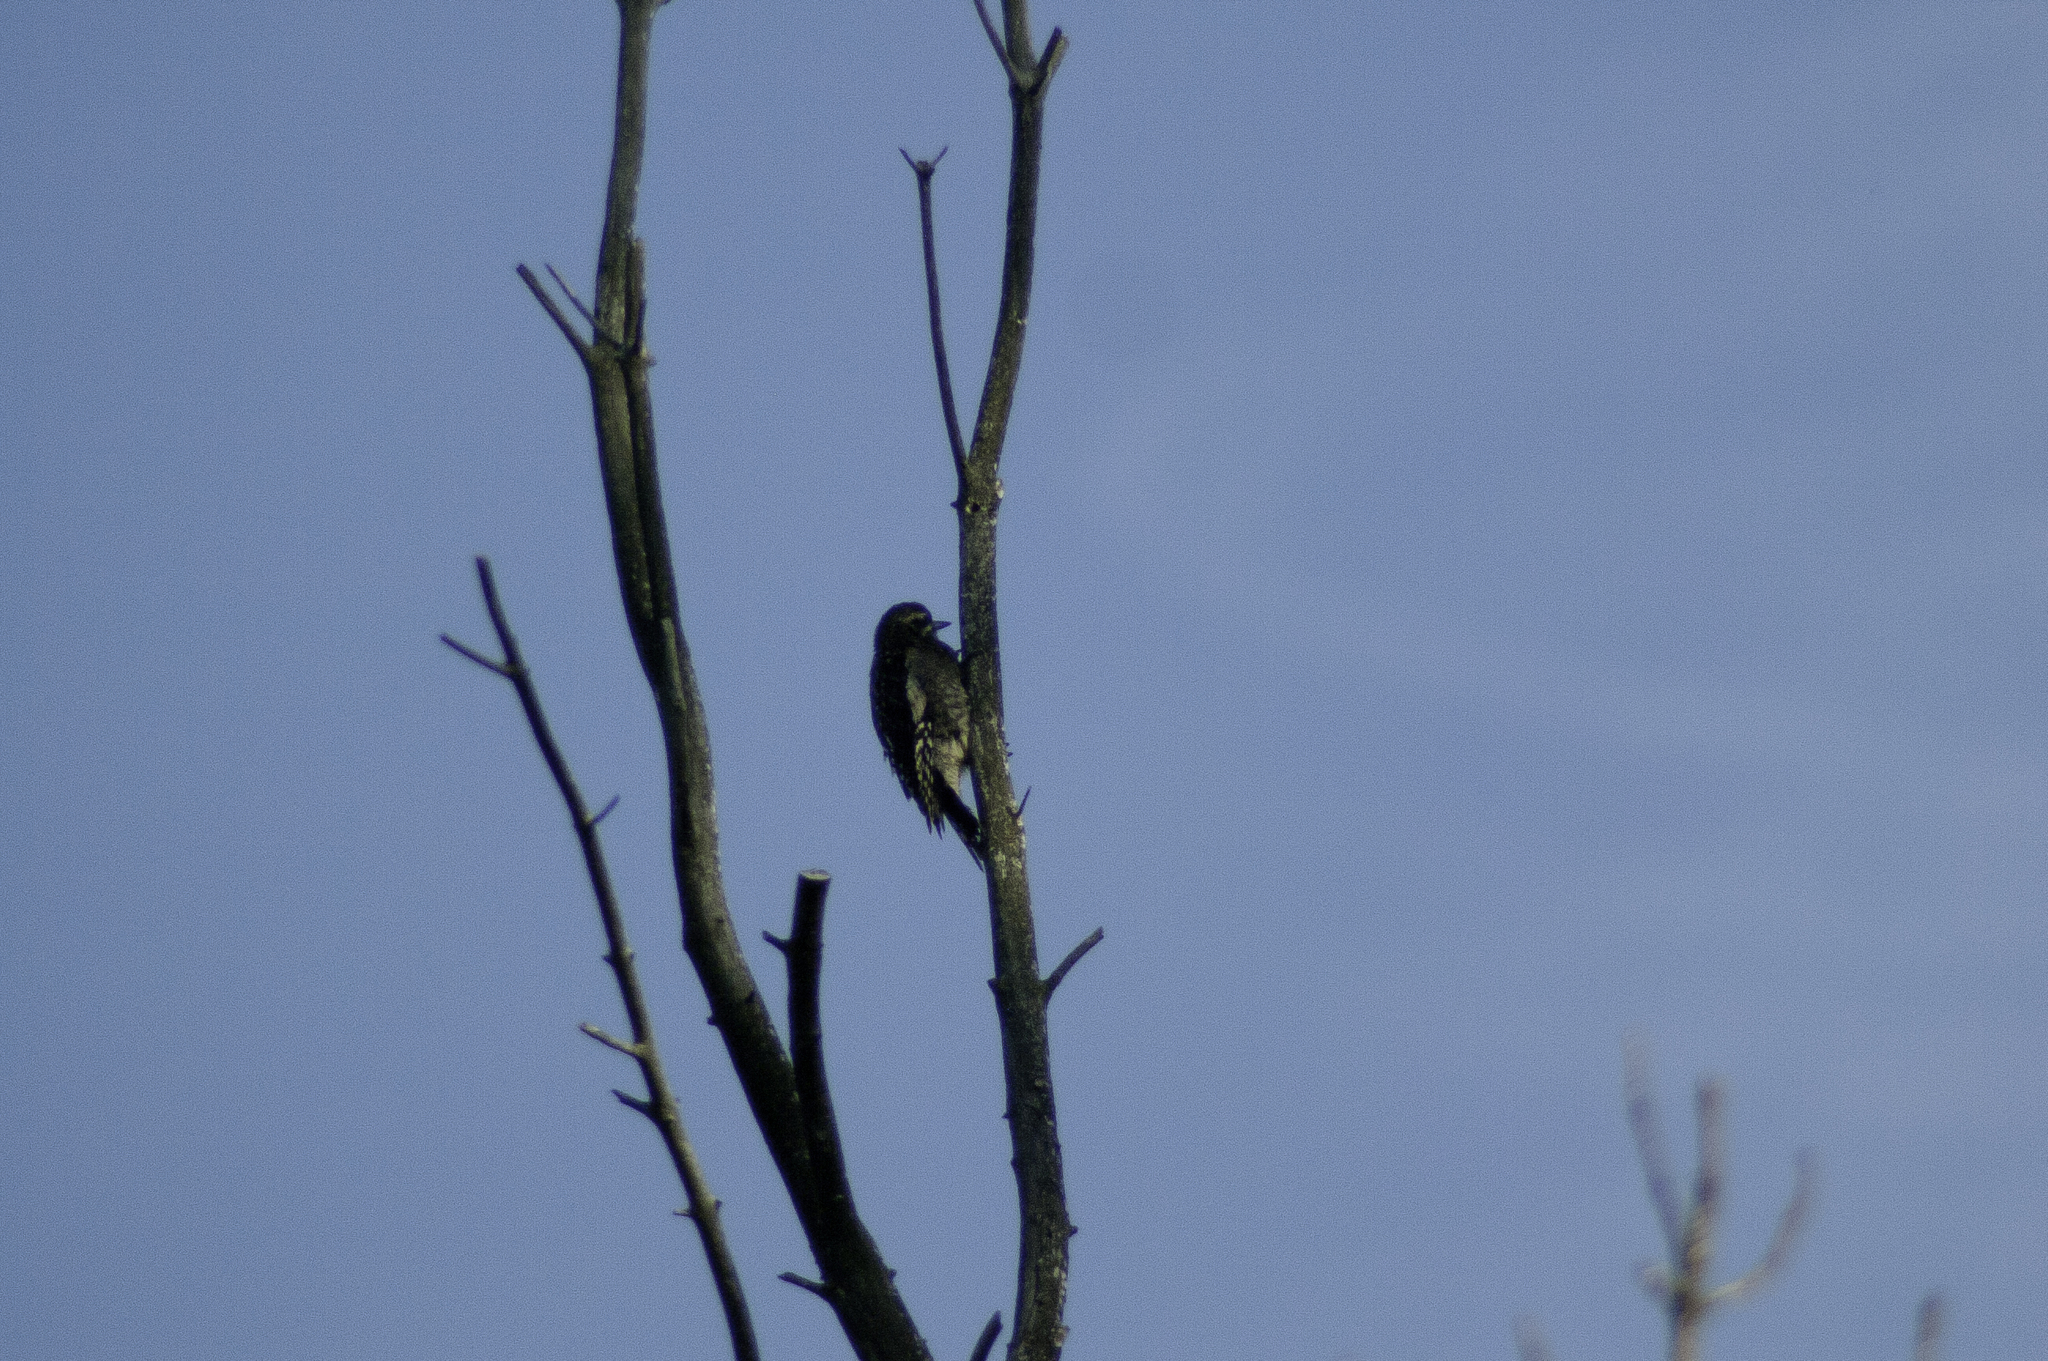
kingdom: Animalia
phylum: Chordata
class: Aves
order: Piciformes
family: Picidae
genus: Sphyrapicus
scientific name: Sphyrapicus varius
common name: Yellow-bellied sapsucker
